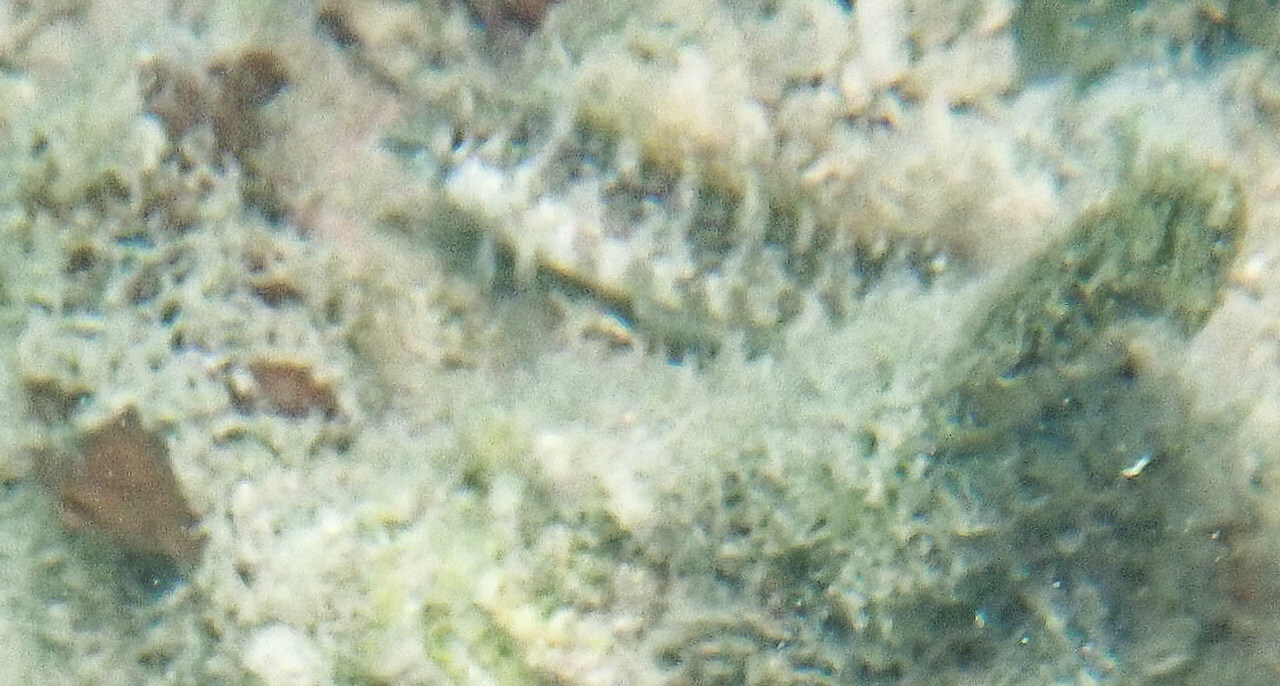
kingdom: Animalia
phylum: Chordata
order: Perciformes
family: Labrisomidae
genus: Malacoctenus
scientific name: Malacoctenus triangulatus
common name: Saddled blenny
